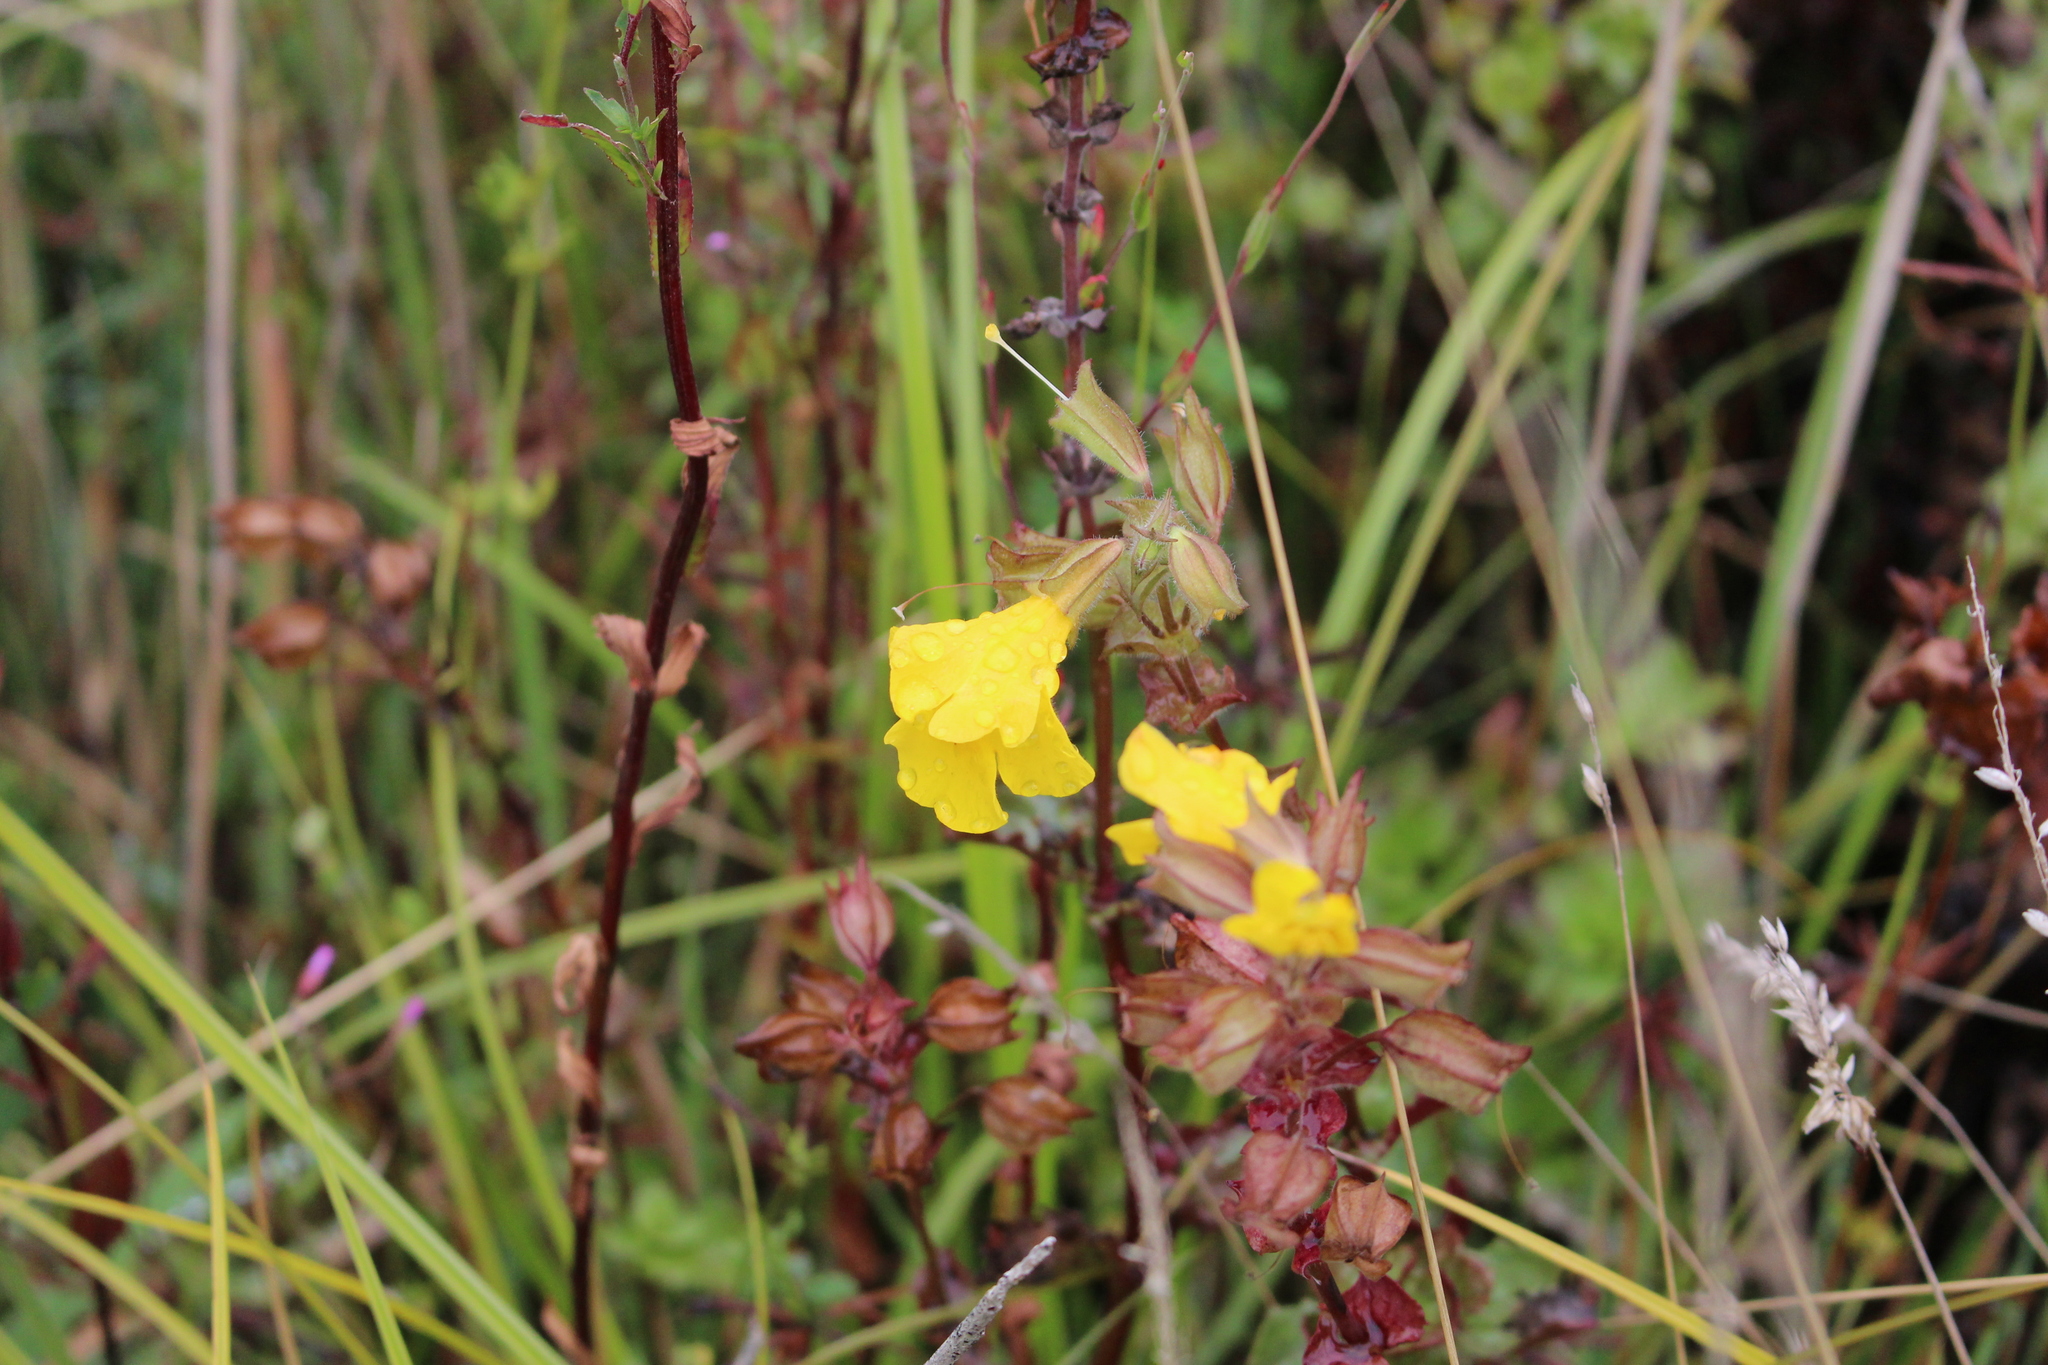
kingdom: Plantae
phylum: Tracheophyta
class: Magnoliopsida
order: Lamiales
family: Phrymaceae
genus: Erythranthe
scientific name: Erythranthe guttata
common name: Monkeyflower
